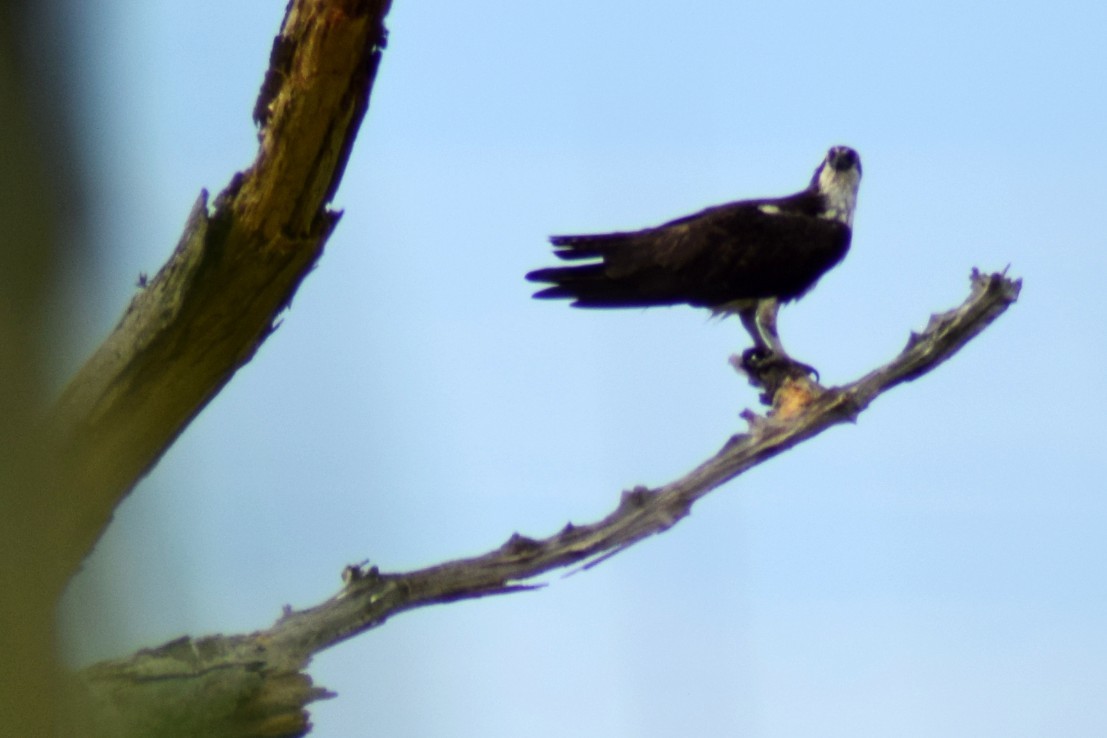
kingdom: Animalia
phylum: Chordata
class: Aves
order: Accipitriformes
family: Pandionidae
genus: Pandion
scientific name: Pandion haliaetus
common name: Osprey
